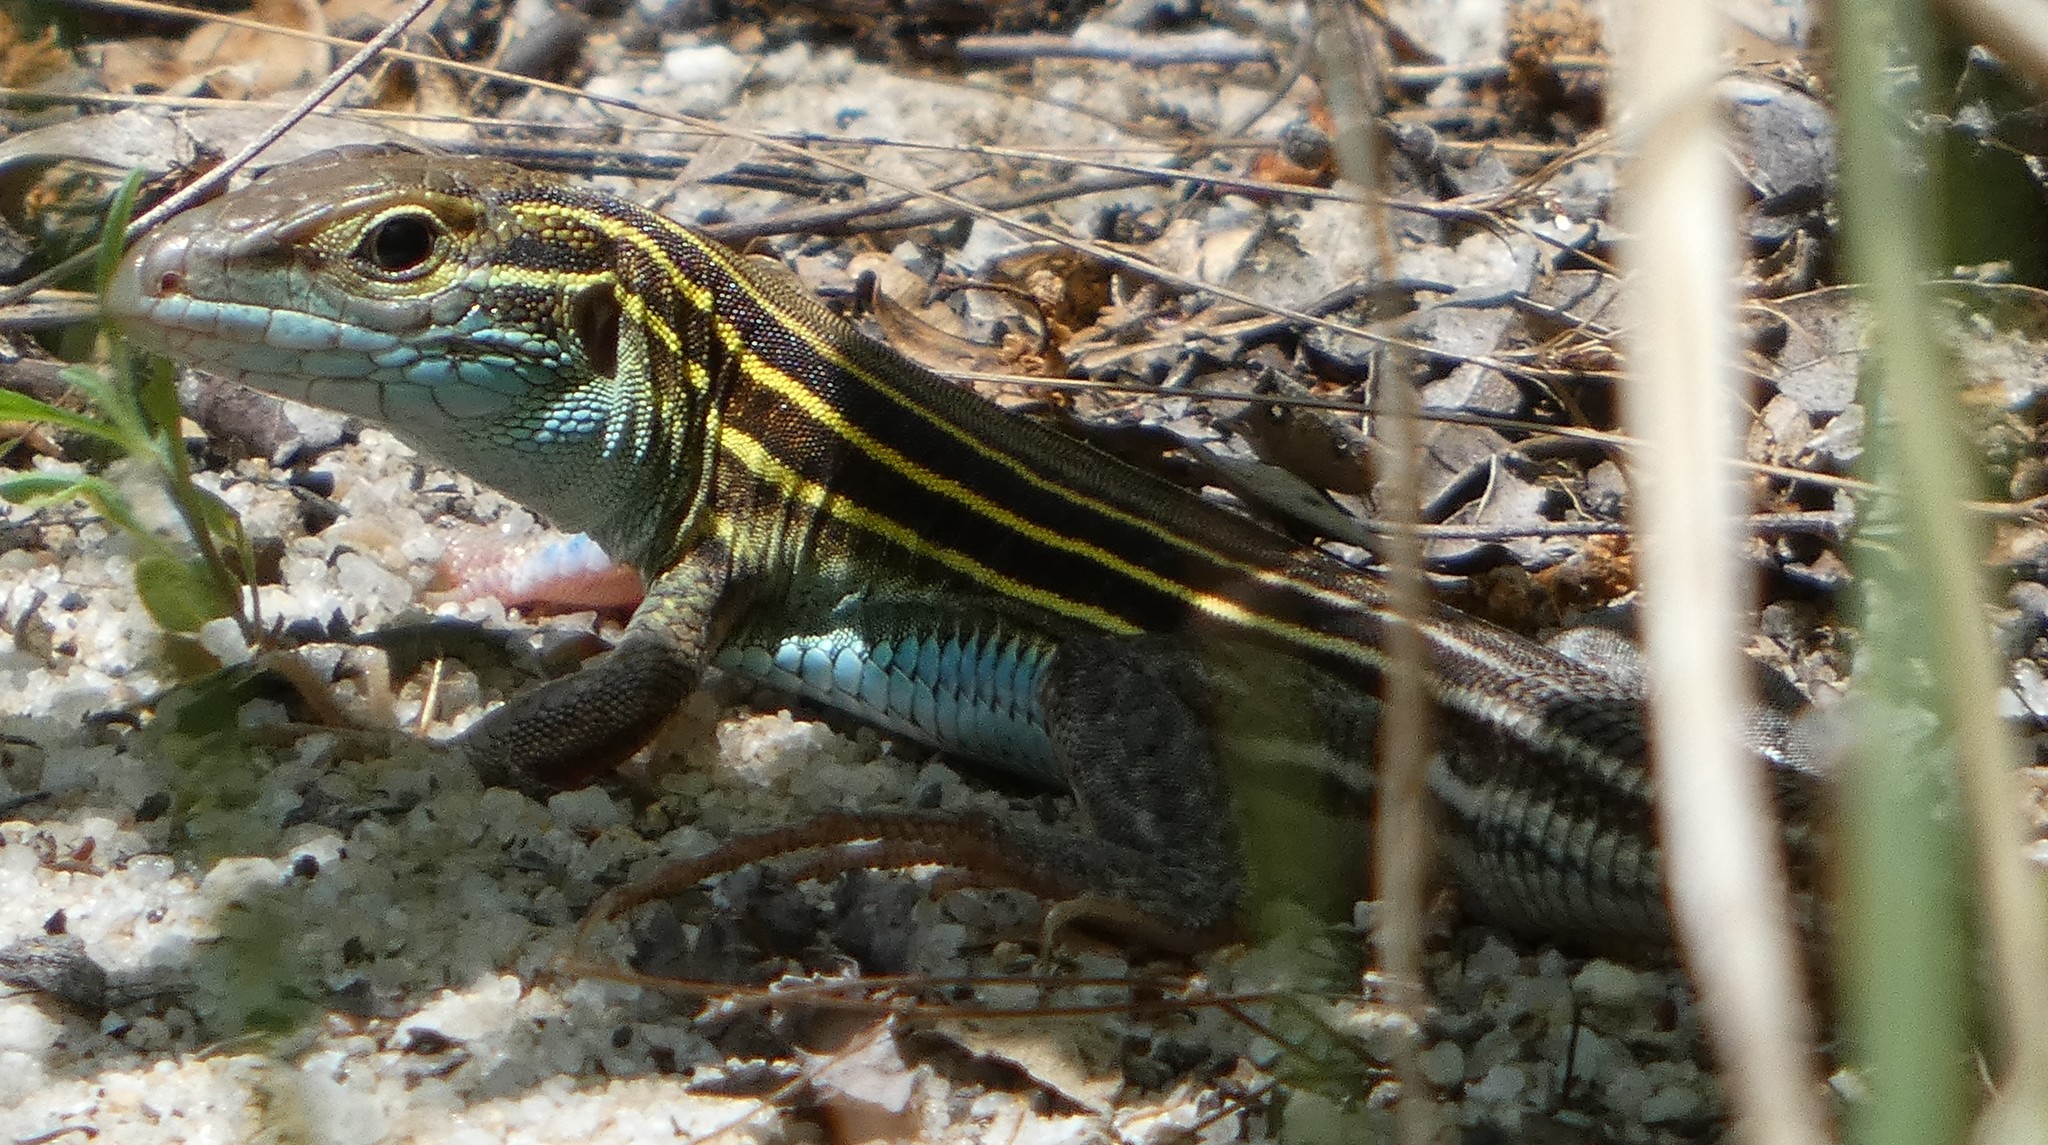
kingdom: Animalia
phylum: Chordata
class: Squamata
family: Teiidae
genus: Aspidoscelis
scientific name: Aspidoscelis sexlineatus
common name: Six-lined racerunner
